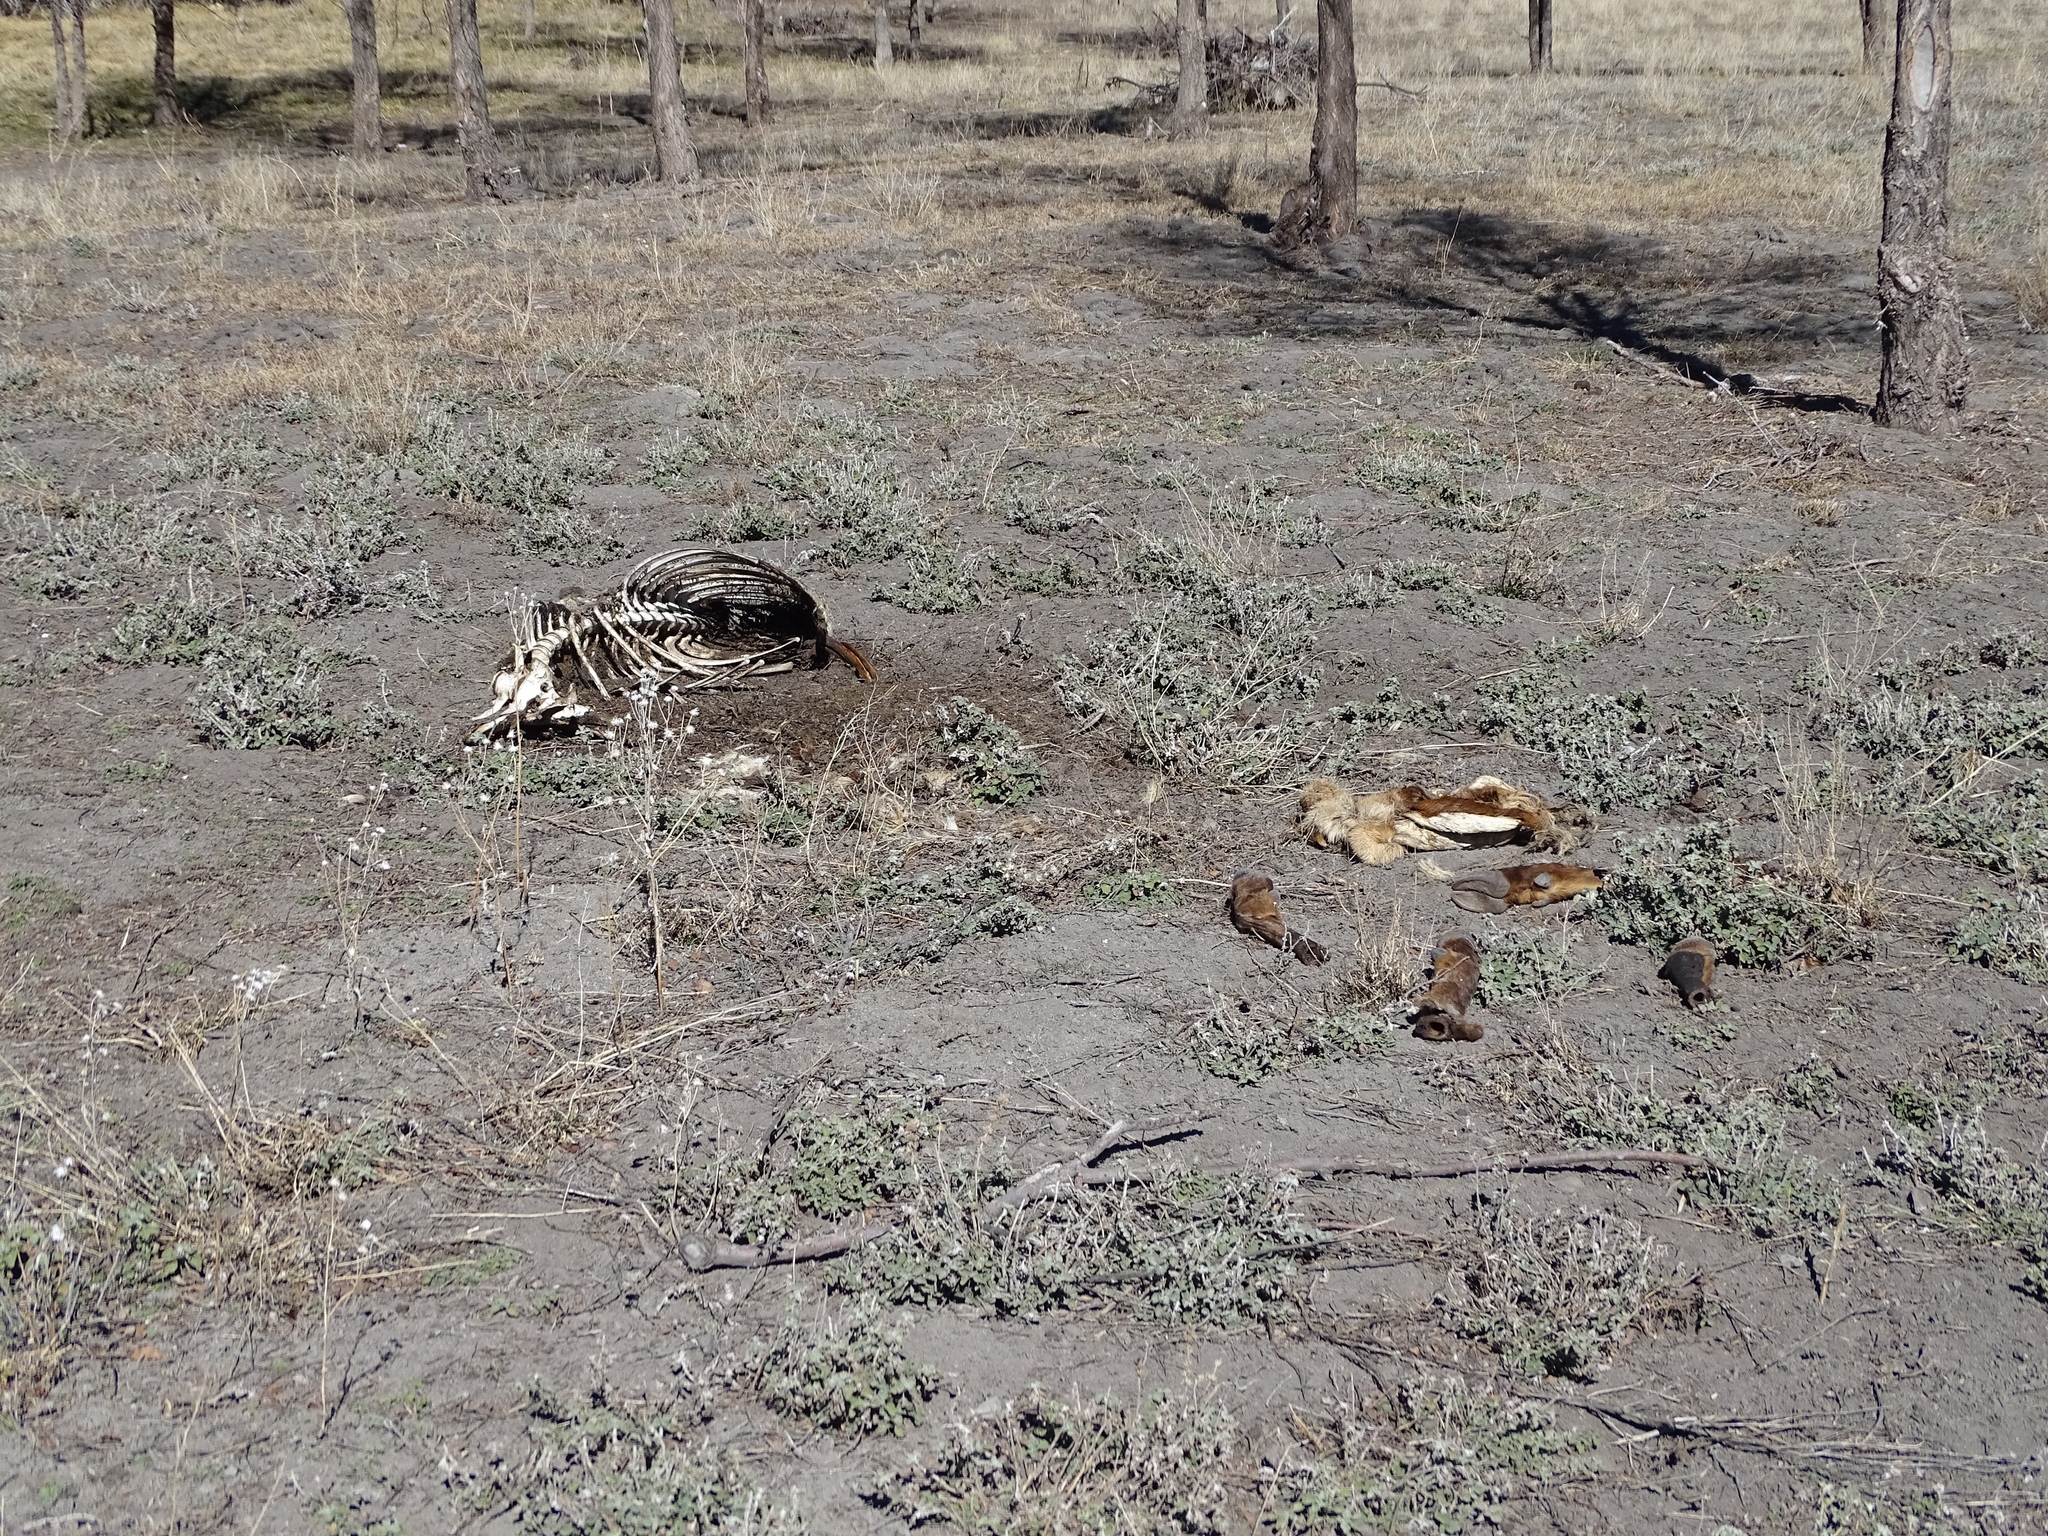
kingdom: Animalia
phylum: Chordata
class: Mammalia
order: Artiodactyla
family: Cervidae
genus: Cervus
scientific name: Cervus elaphus
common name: Red deer
